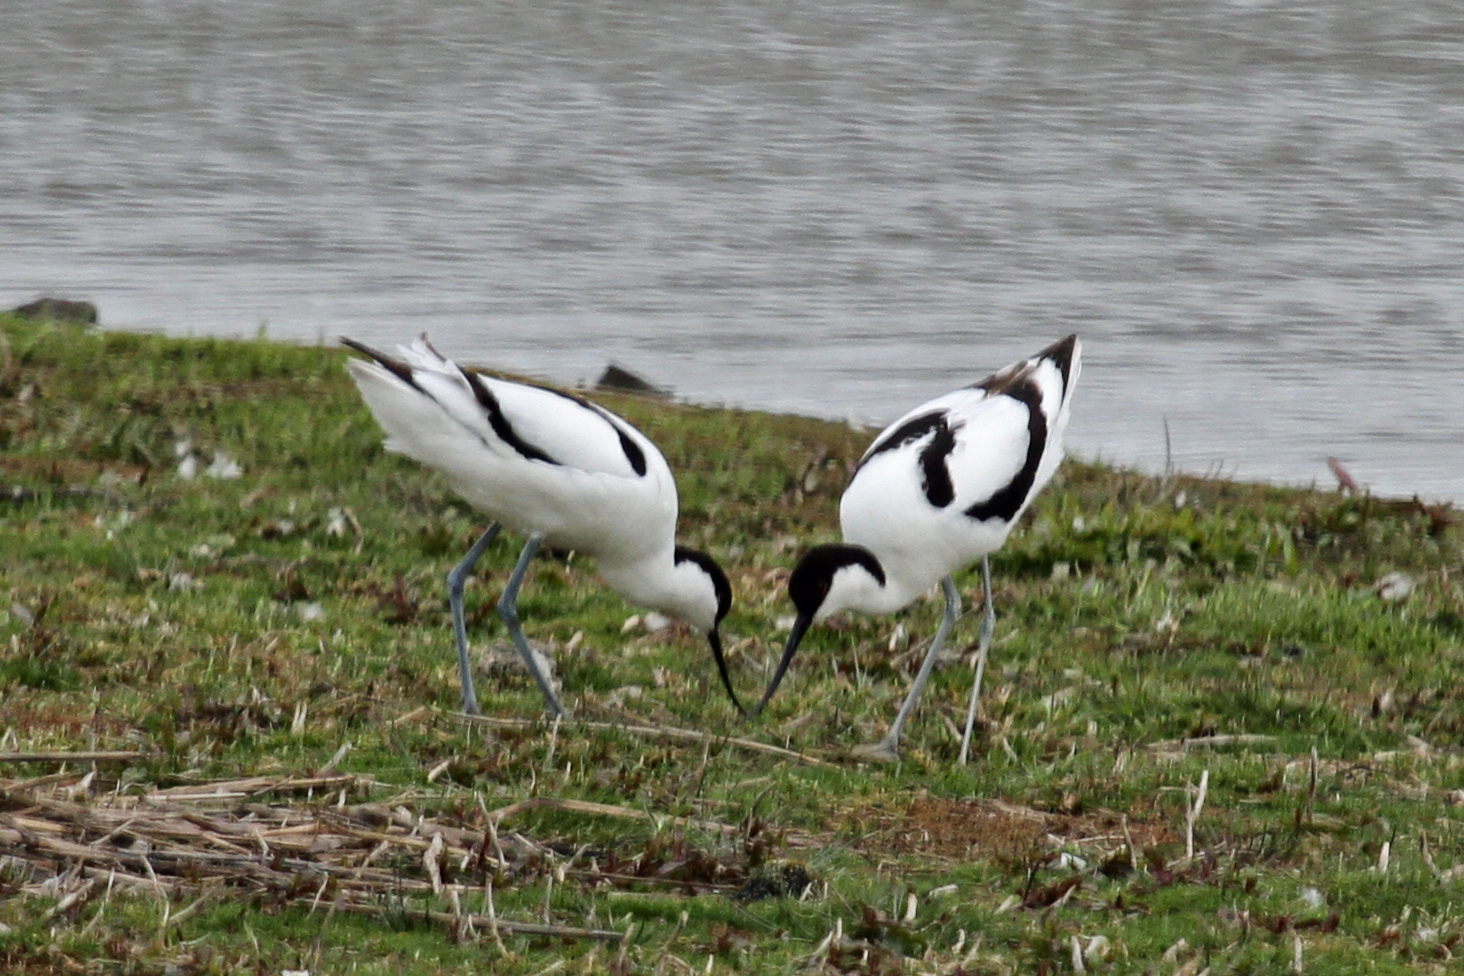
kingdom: Animalia
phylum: Chordata
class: Aves
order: Charadriiformes
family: Recurvirostridae
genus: Recurvirostra
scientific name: Recurvirostra avosetta
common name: Pied avocet
